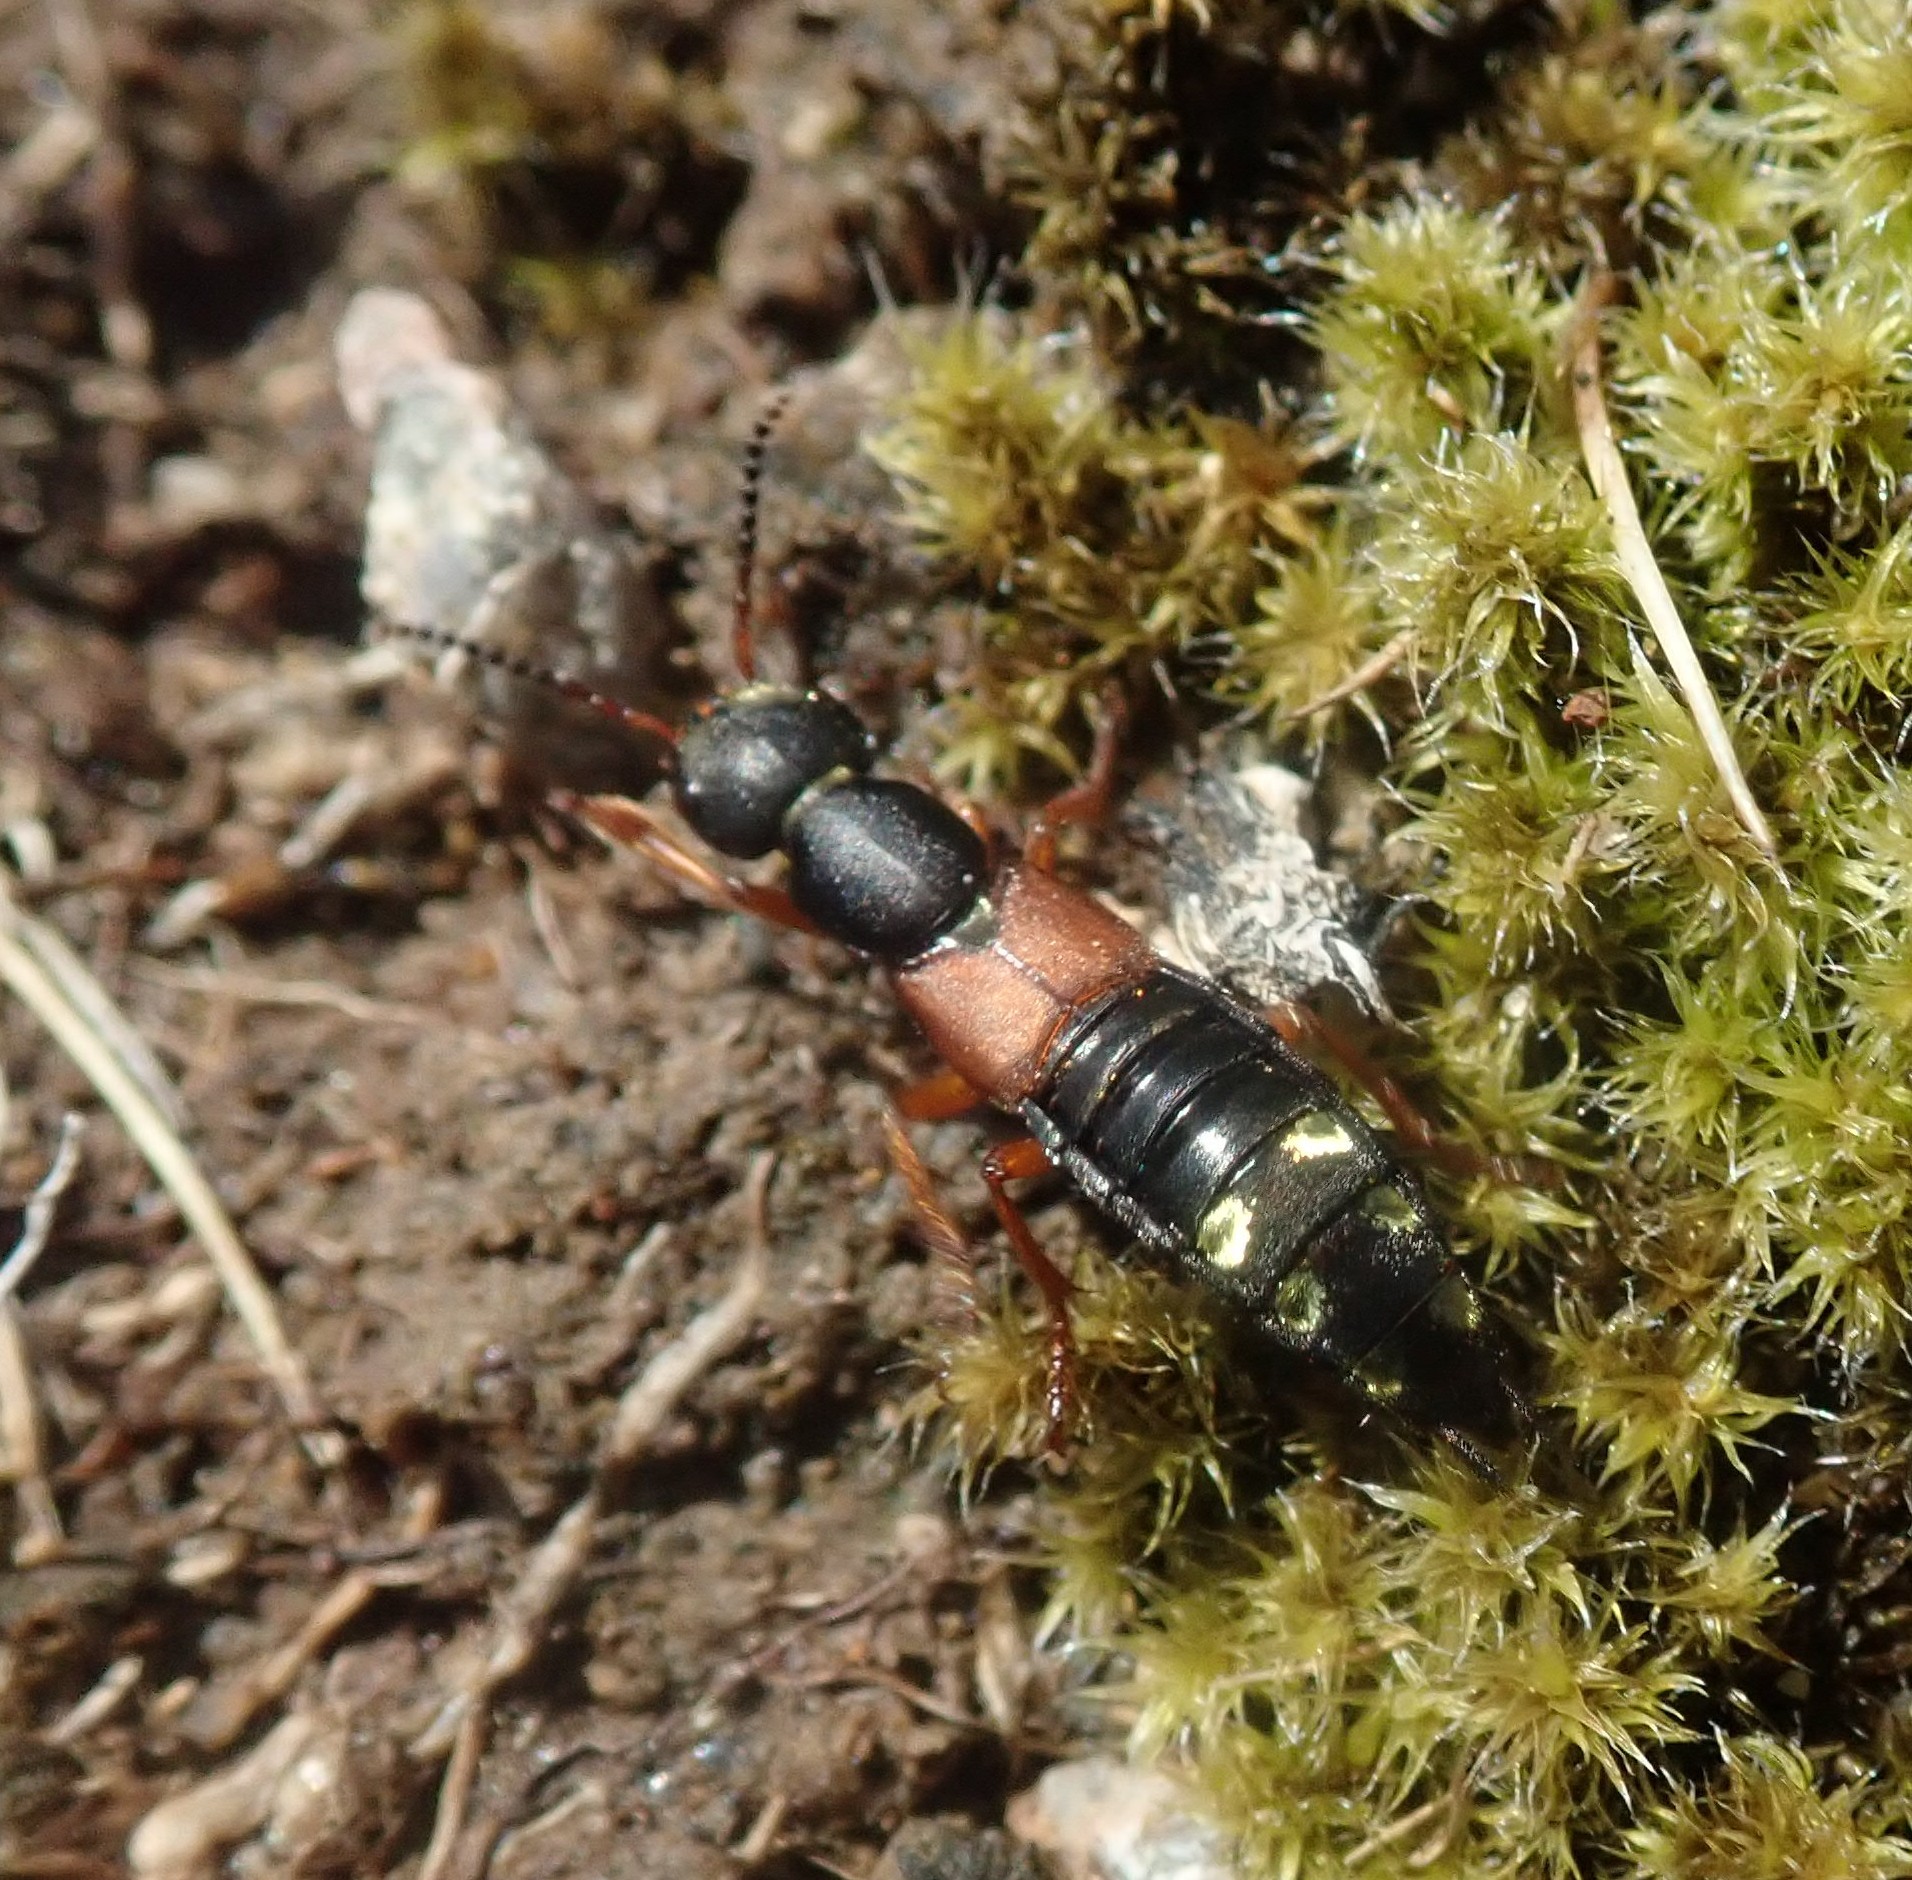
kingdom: Animalia
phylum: Arthropoda
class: Insecta
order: Coleoptera
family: Staphylinidae
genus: Staphylinus
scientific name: Staphylinus erythropterus
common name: Staph beetle
